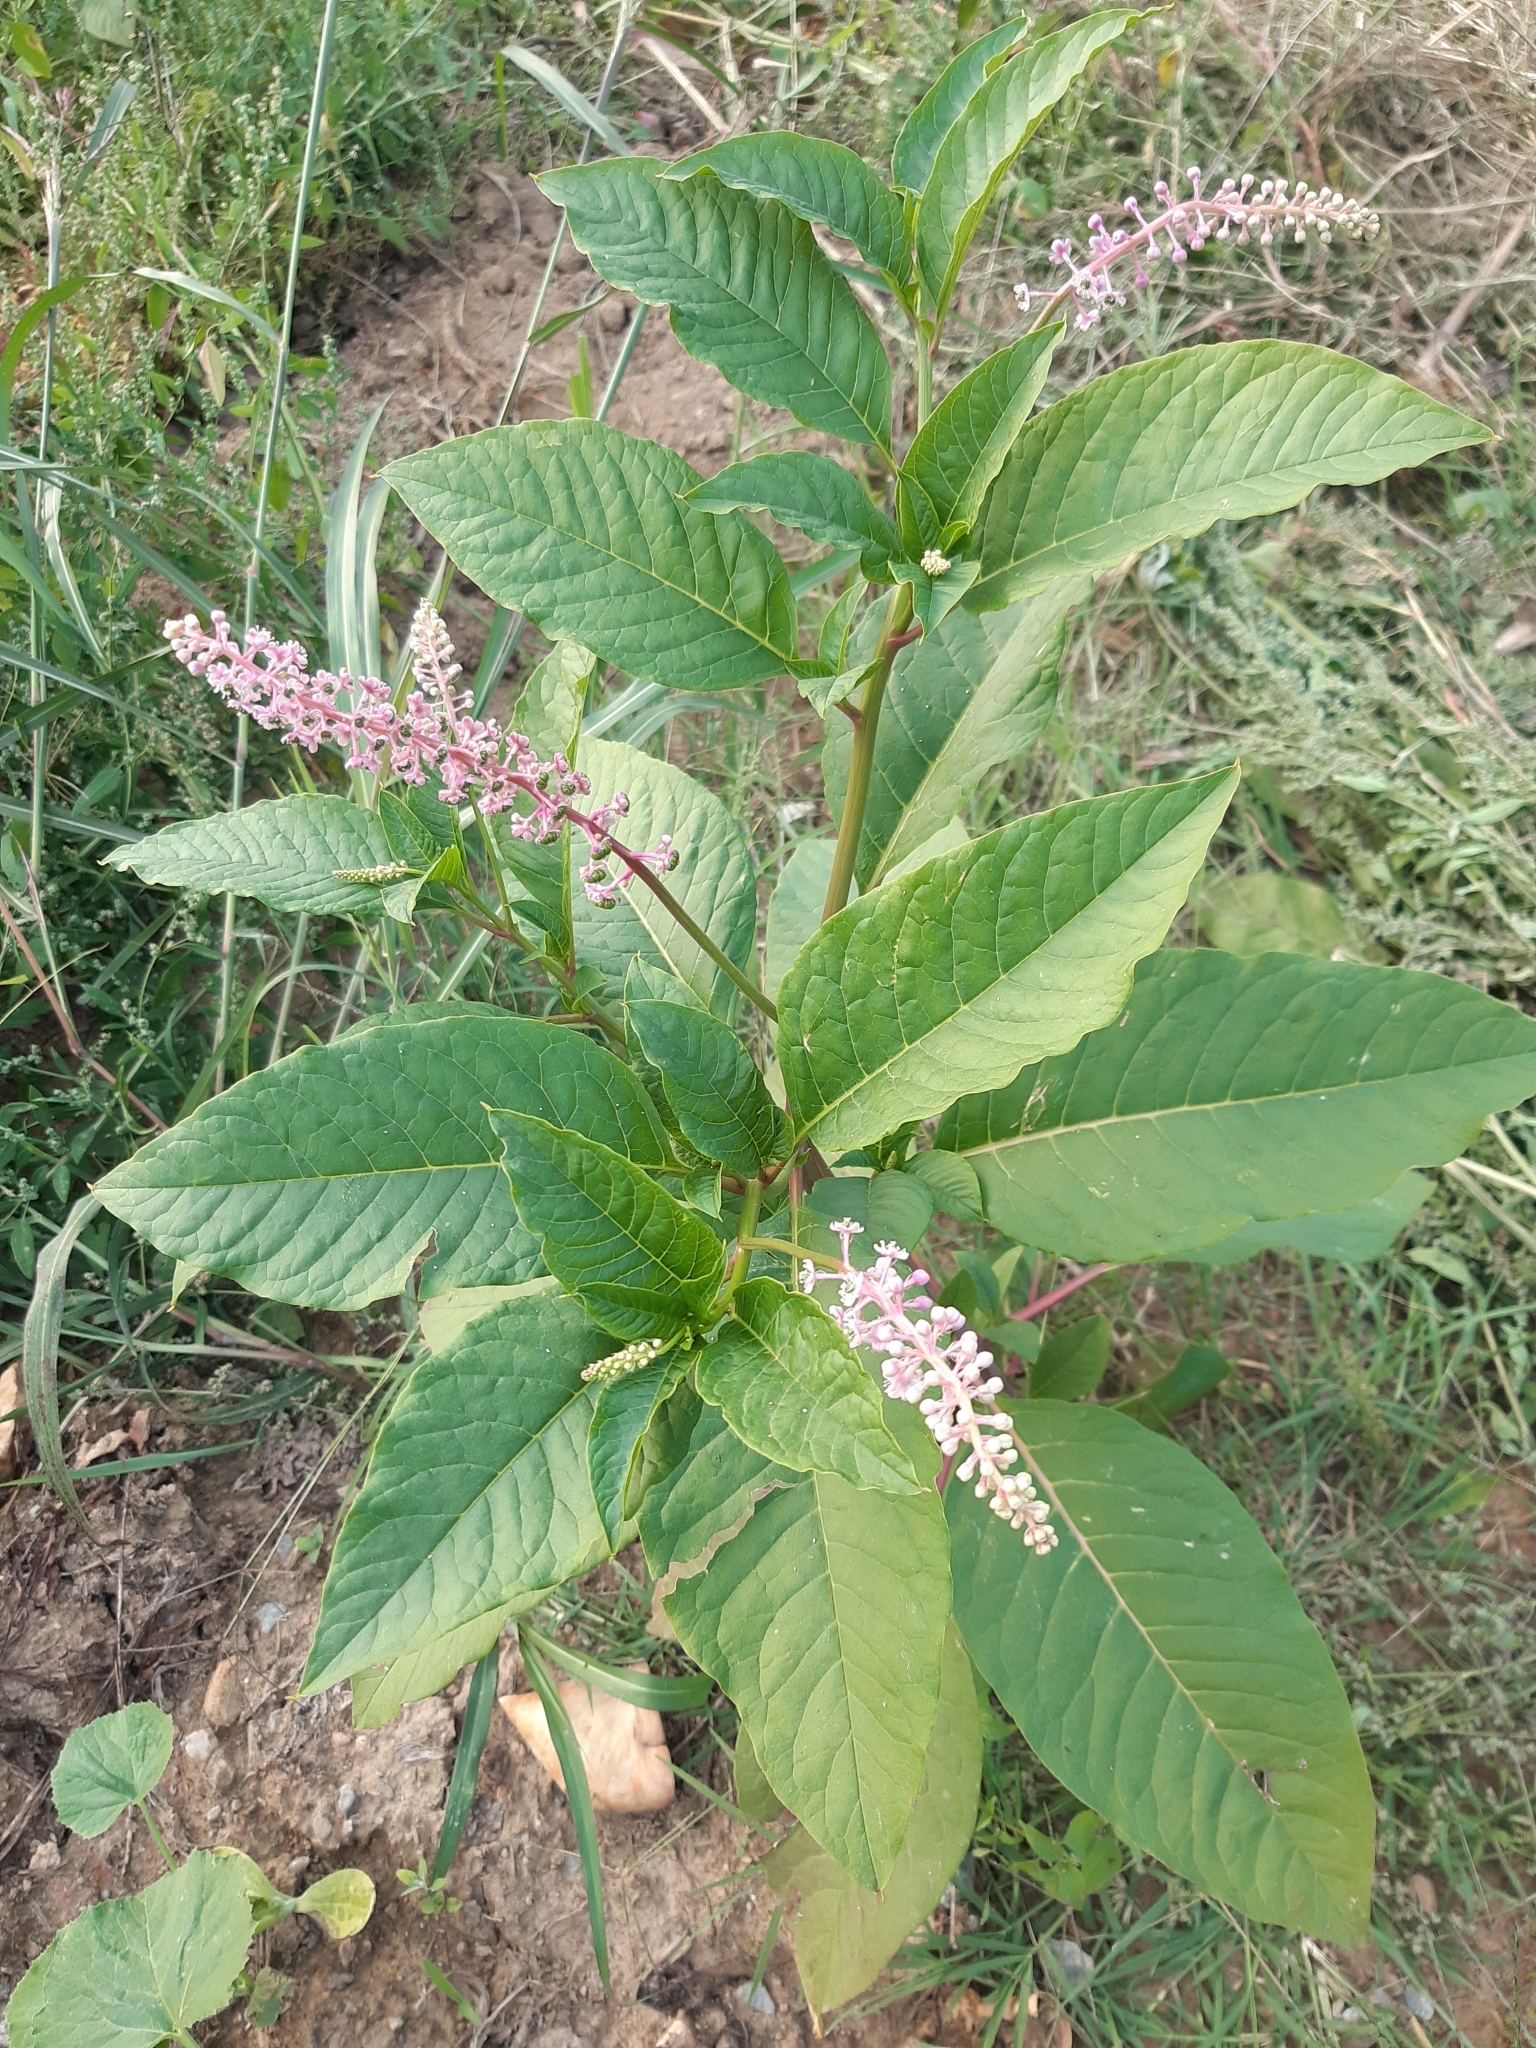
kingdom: Plantae
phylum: Tracheophyta
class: Magnoliopsida
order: Caryophyllales
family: Phytolaccaceae
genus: Phytolacca
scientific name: Phytolacca americana
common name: American pokeweed
